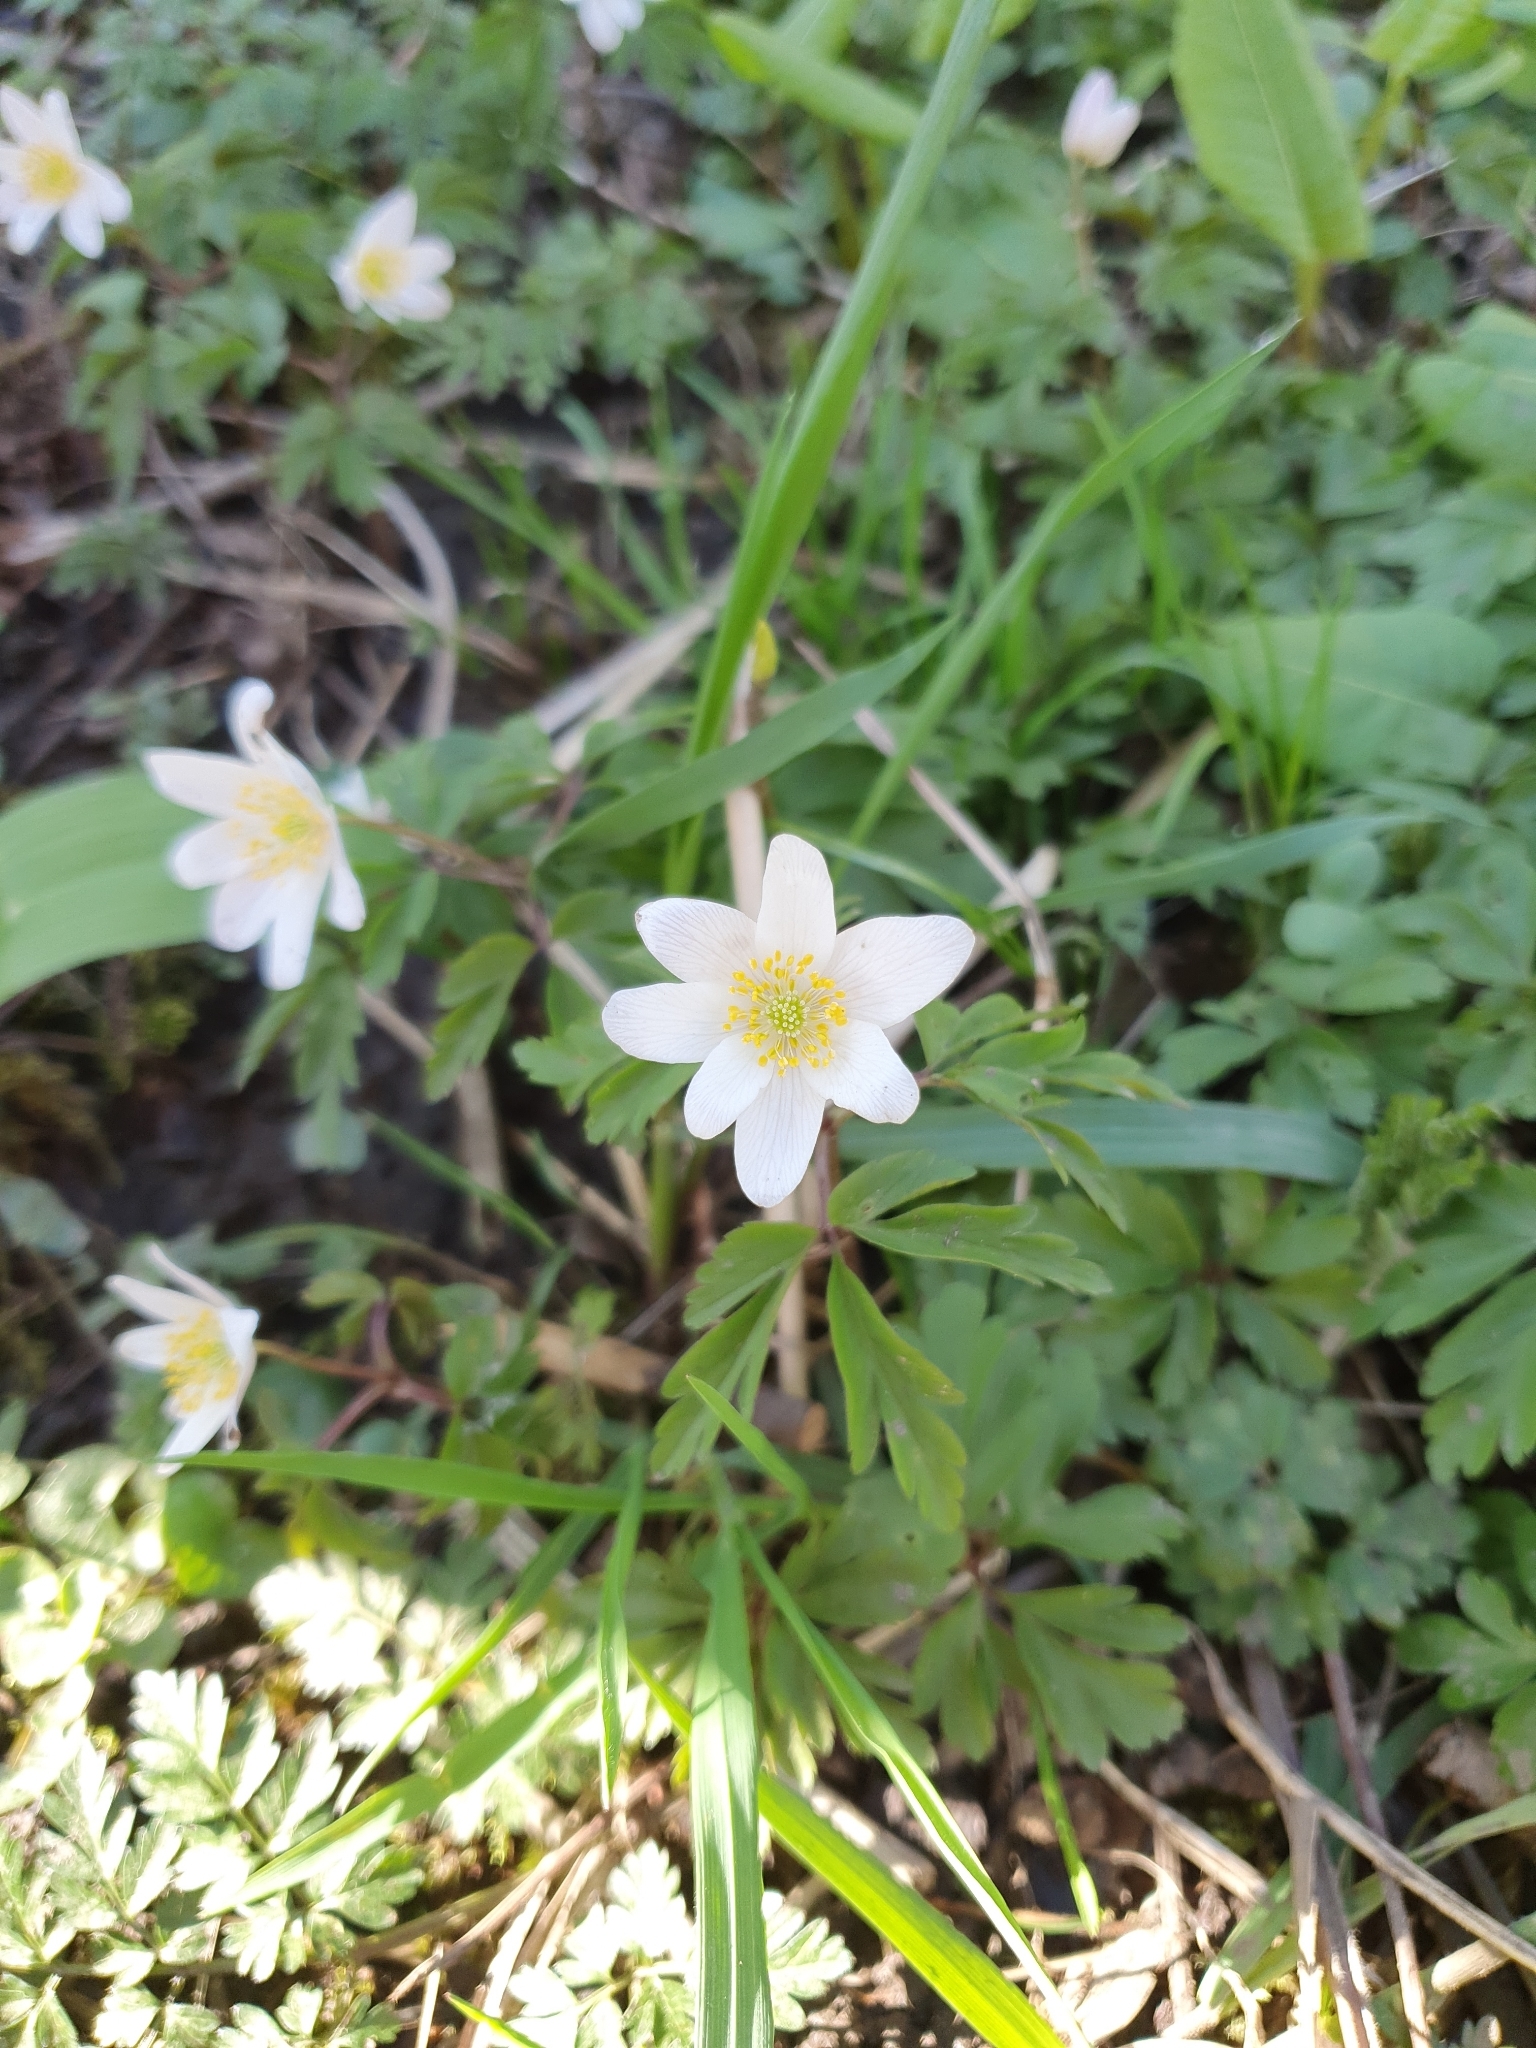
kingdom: Plantae
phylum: Tracheophyta
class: Magnoliopsida
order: Ranunculales
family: Ranunculaceae
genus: Anemone
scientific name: Anemone nemorosa
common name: Wood anemone
